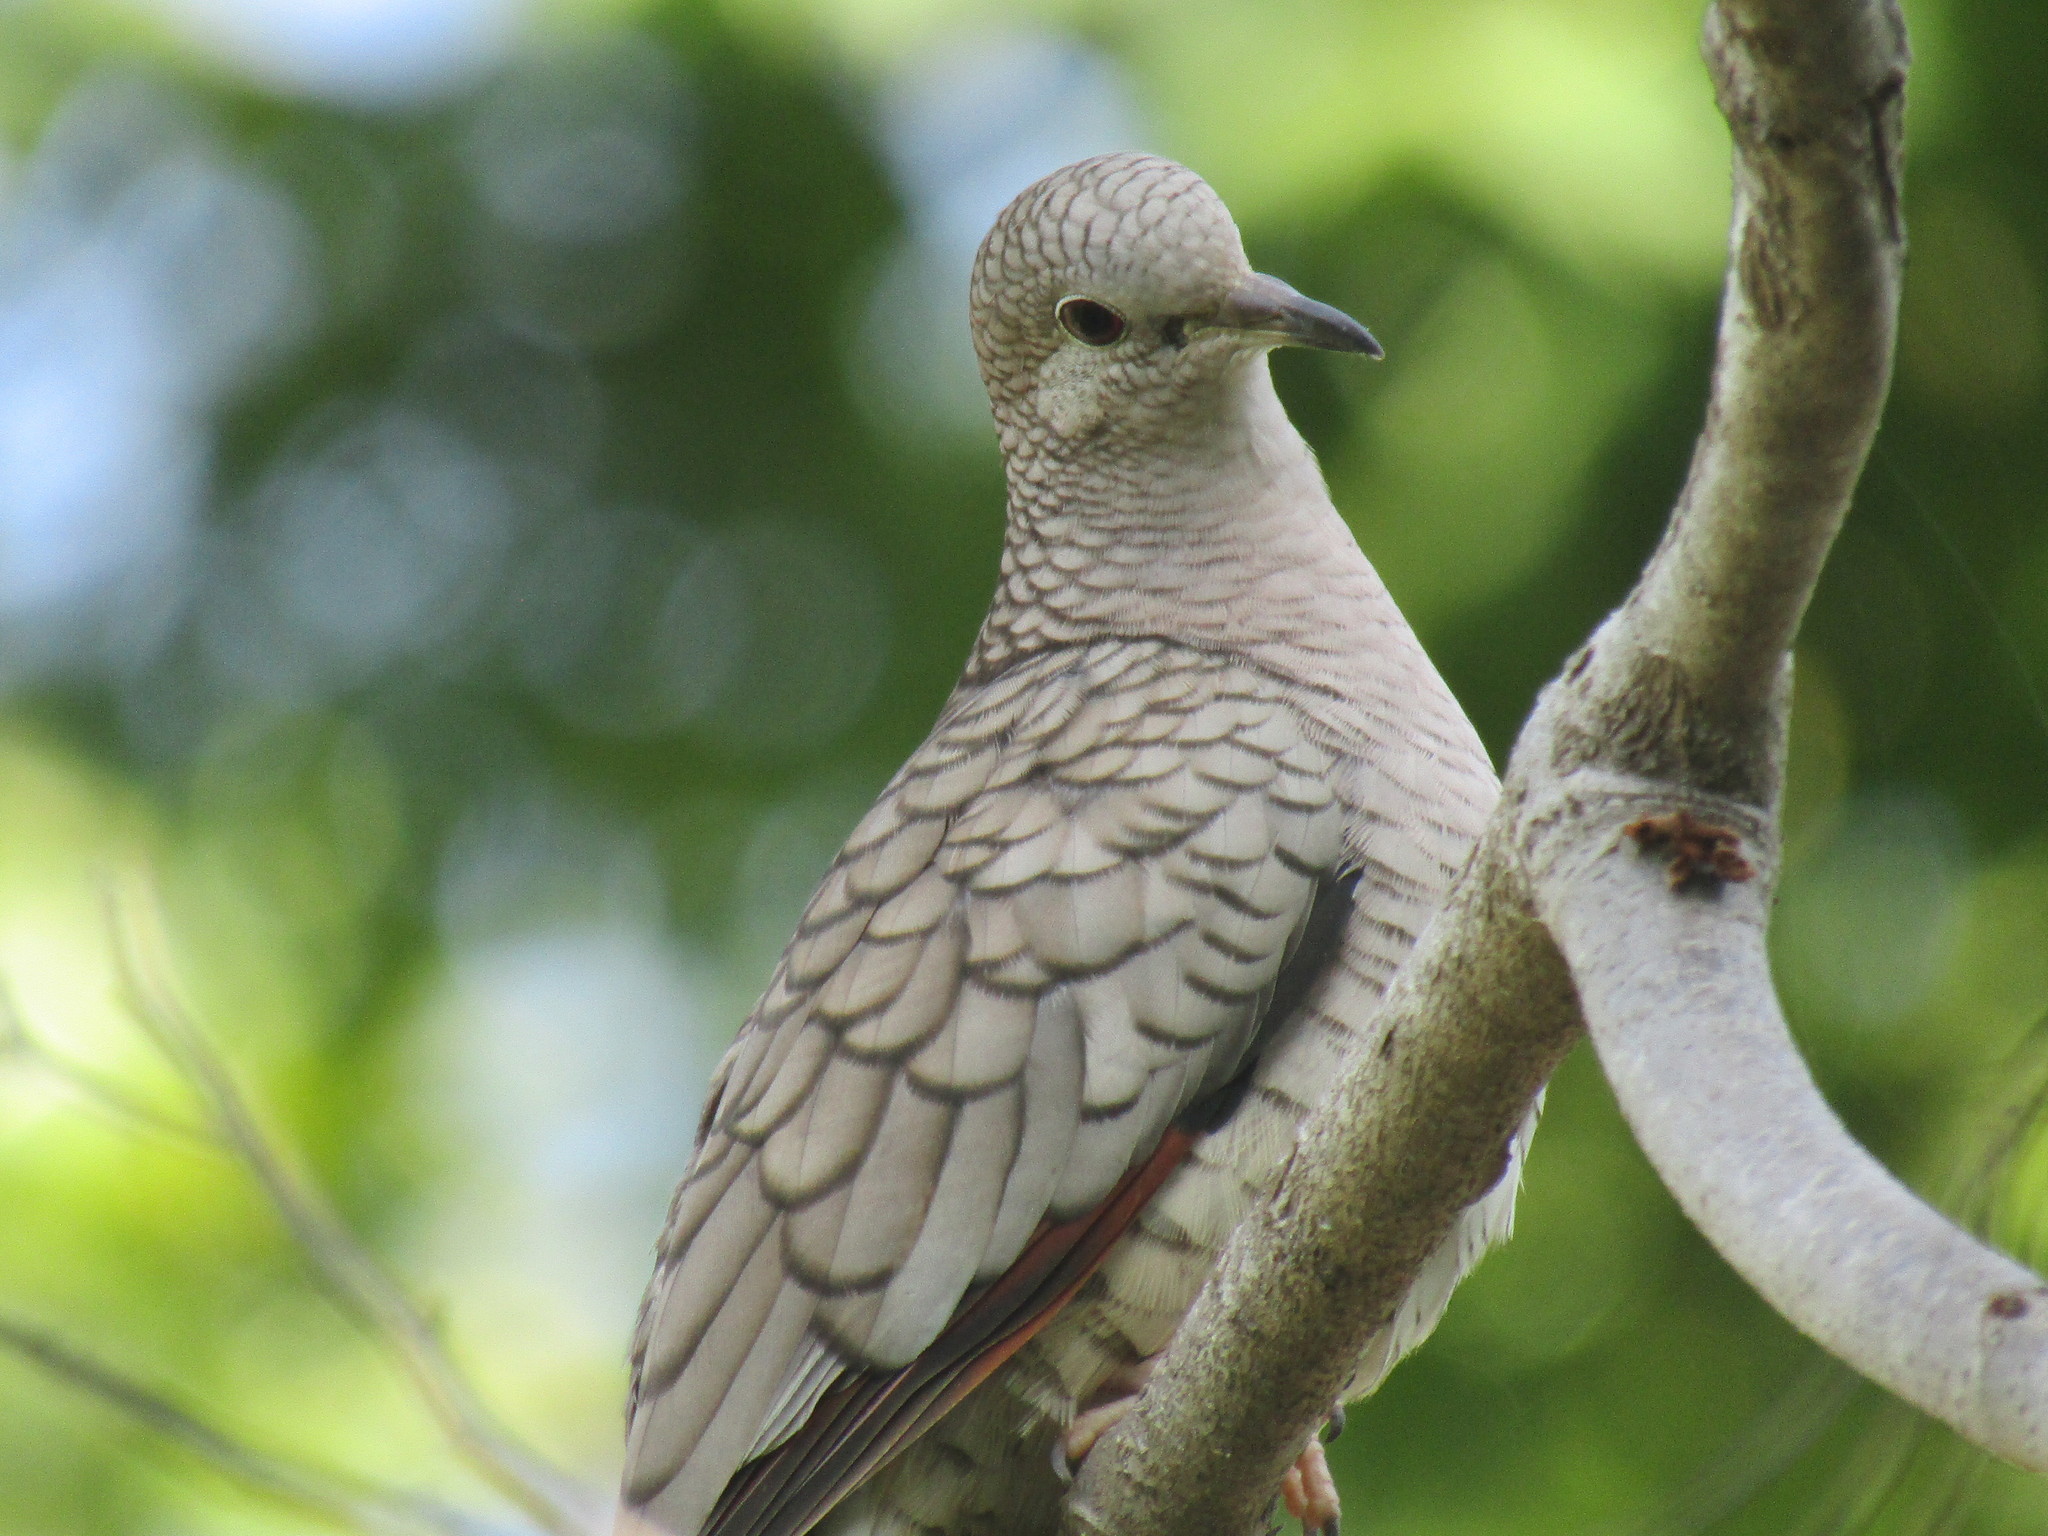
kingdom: Animalia
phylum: Chordata
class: Aves
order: Columbiformes
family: Columbidae
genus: Columbina
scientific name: Columbina inca
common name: Inca dove
